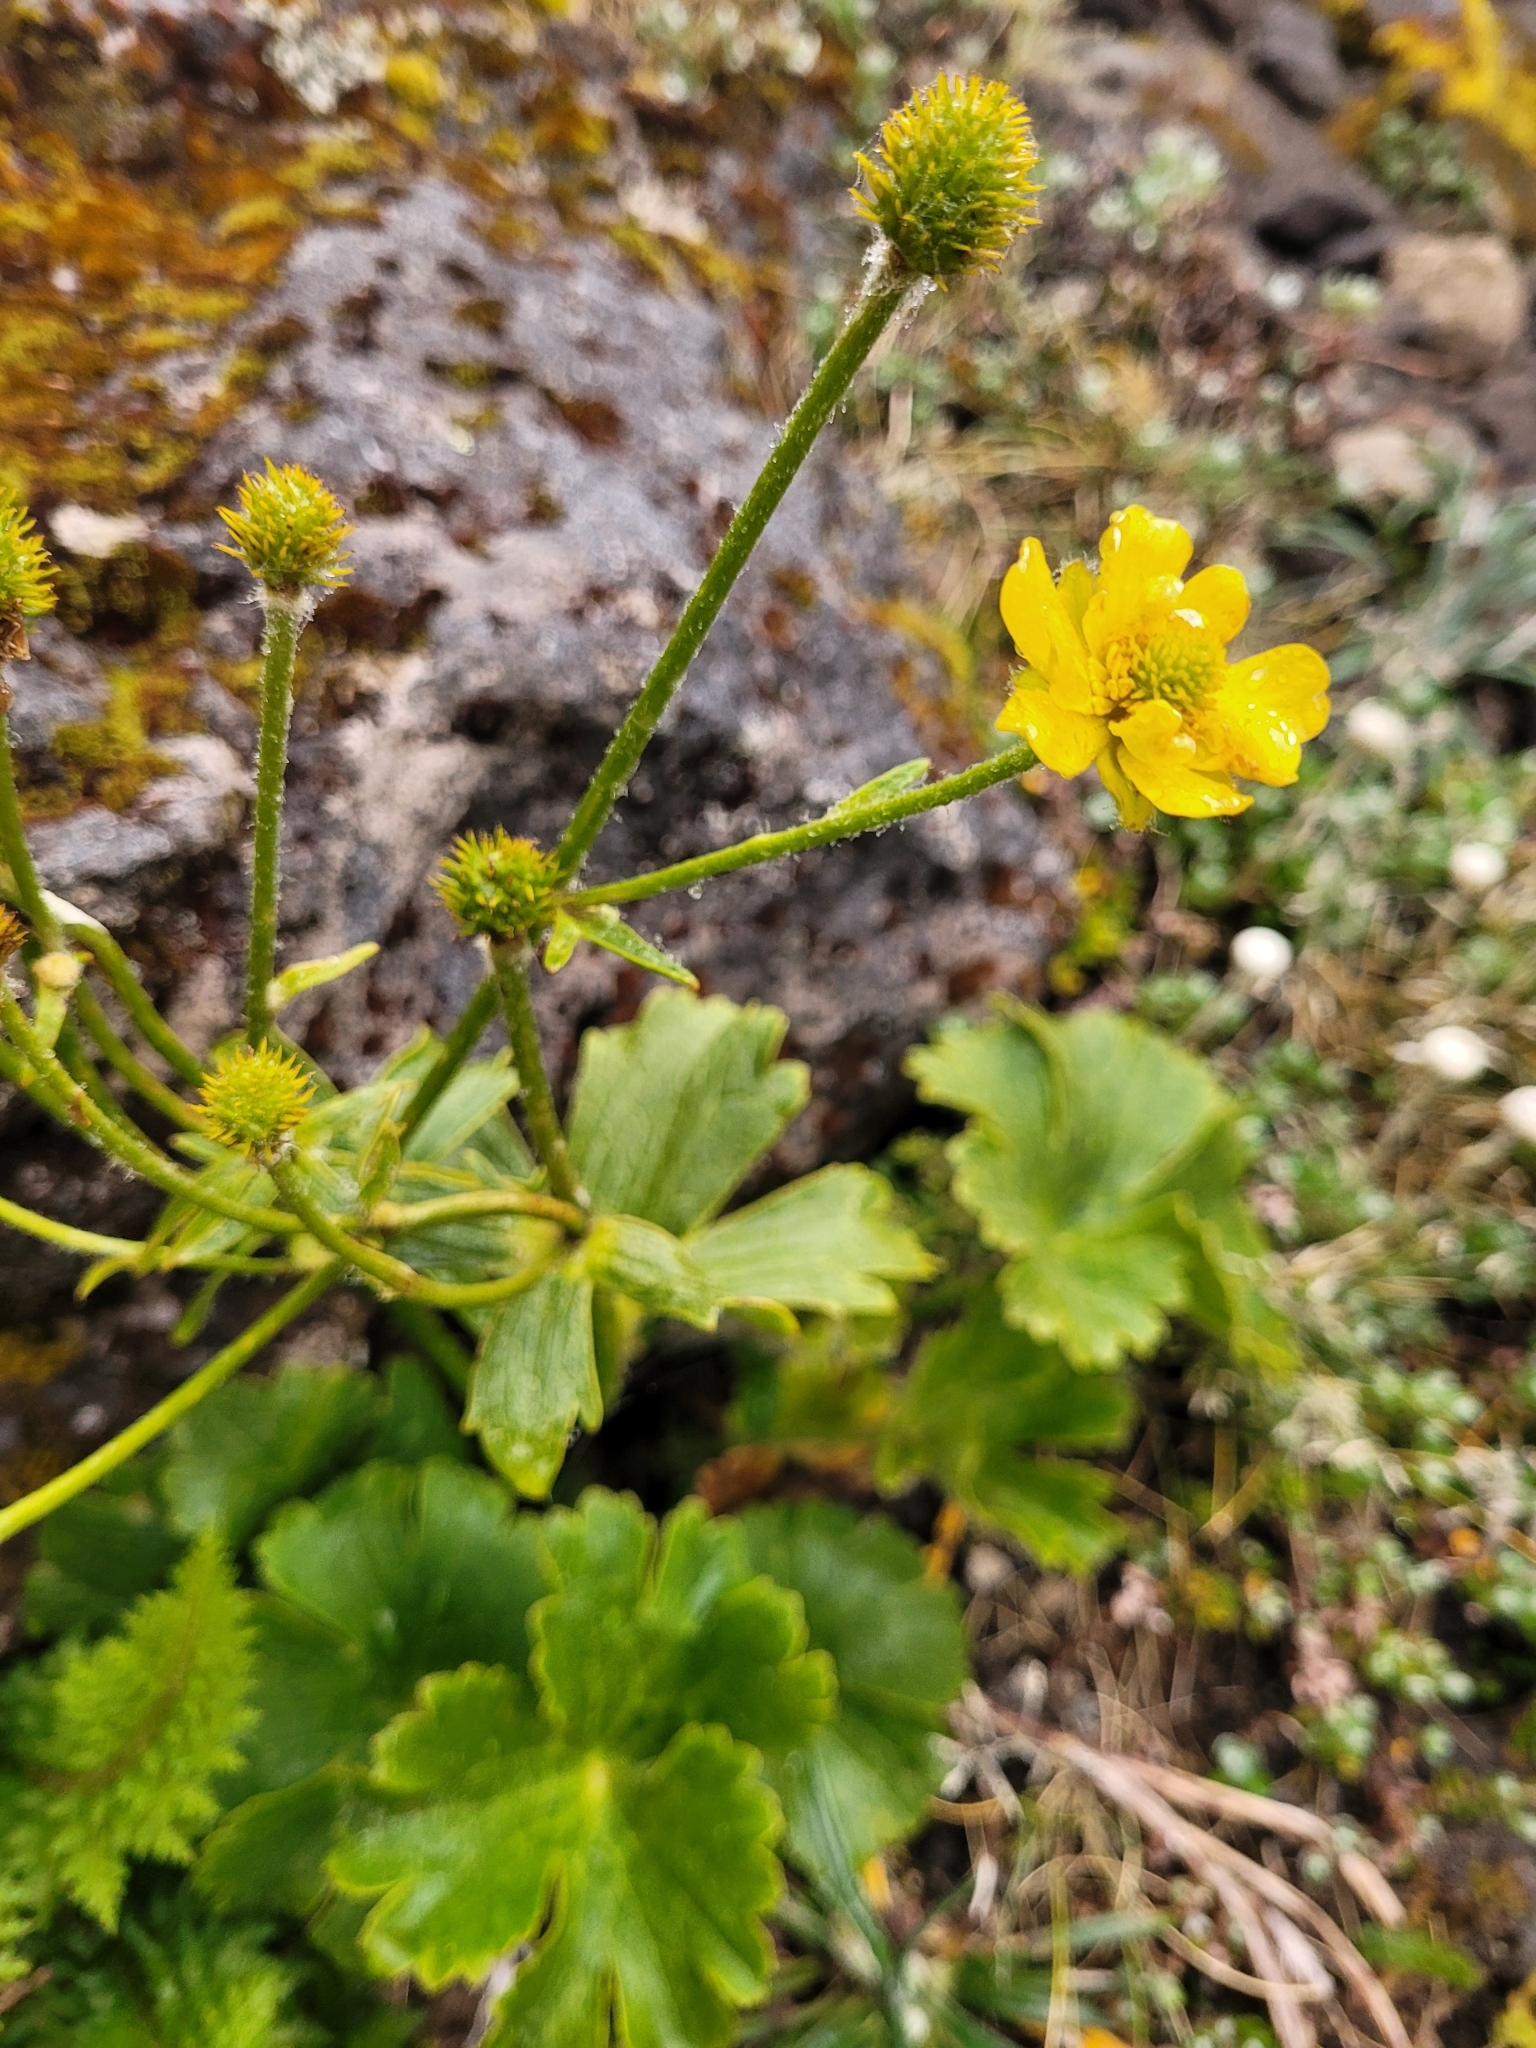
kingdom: Plantae
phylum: Tracheophyta
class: Magnoliopsida
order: Ranunculales
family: Ranunculaceae
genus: Ranunculus
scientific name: Ranunculus nivicola
